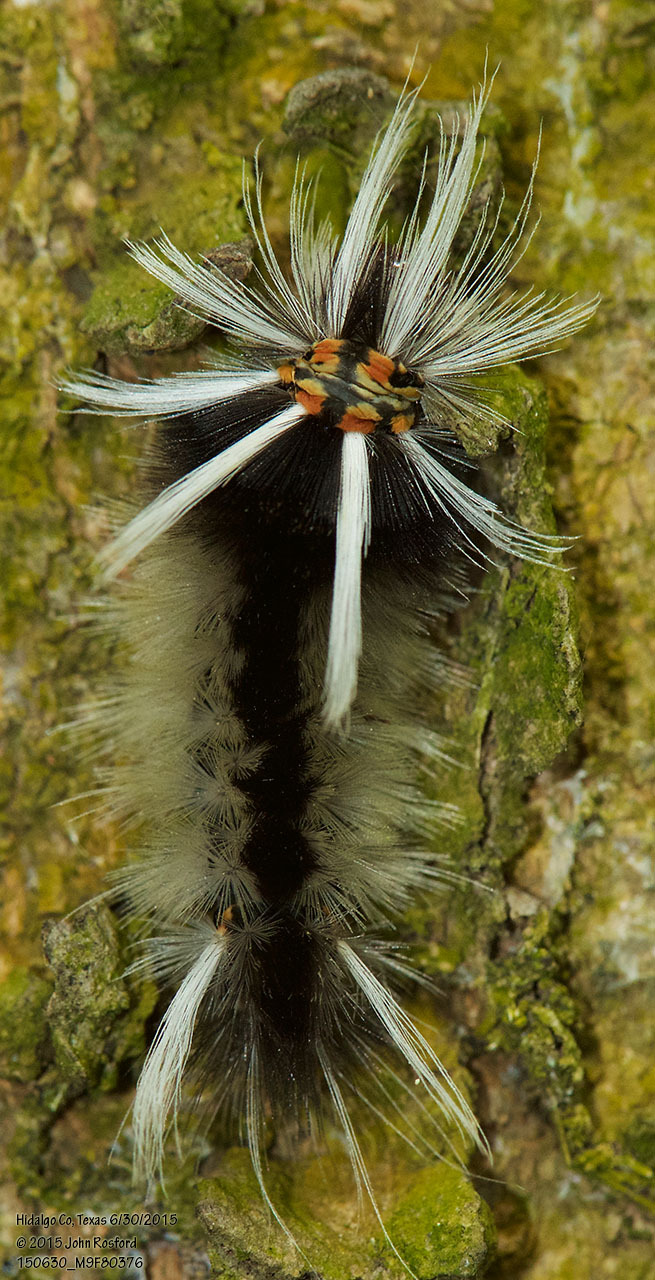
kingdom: Animalia
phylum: Arthropoda
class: Insecta
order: Lepidoptera
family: Erebidae
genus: Halysidota
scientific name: Halysidota schausi
